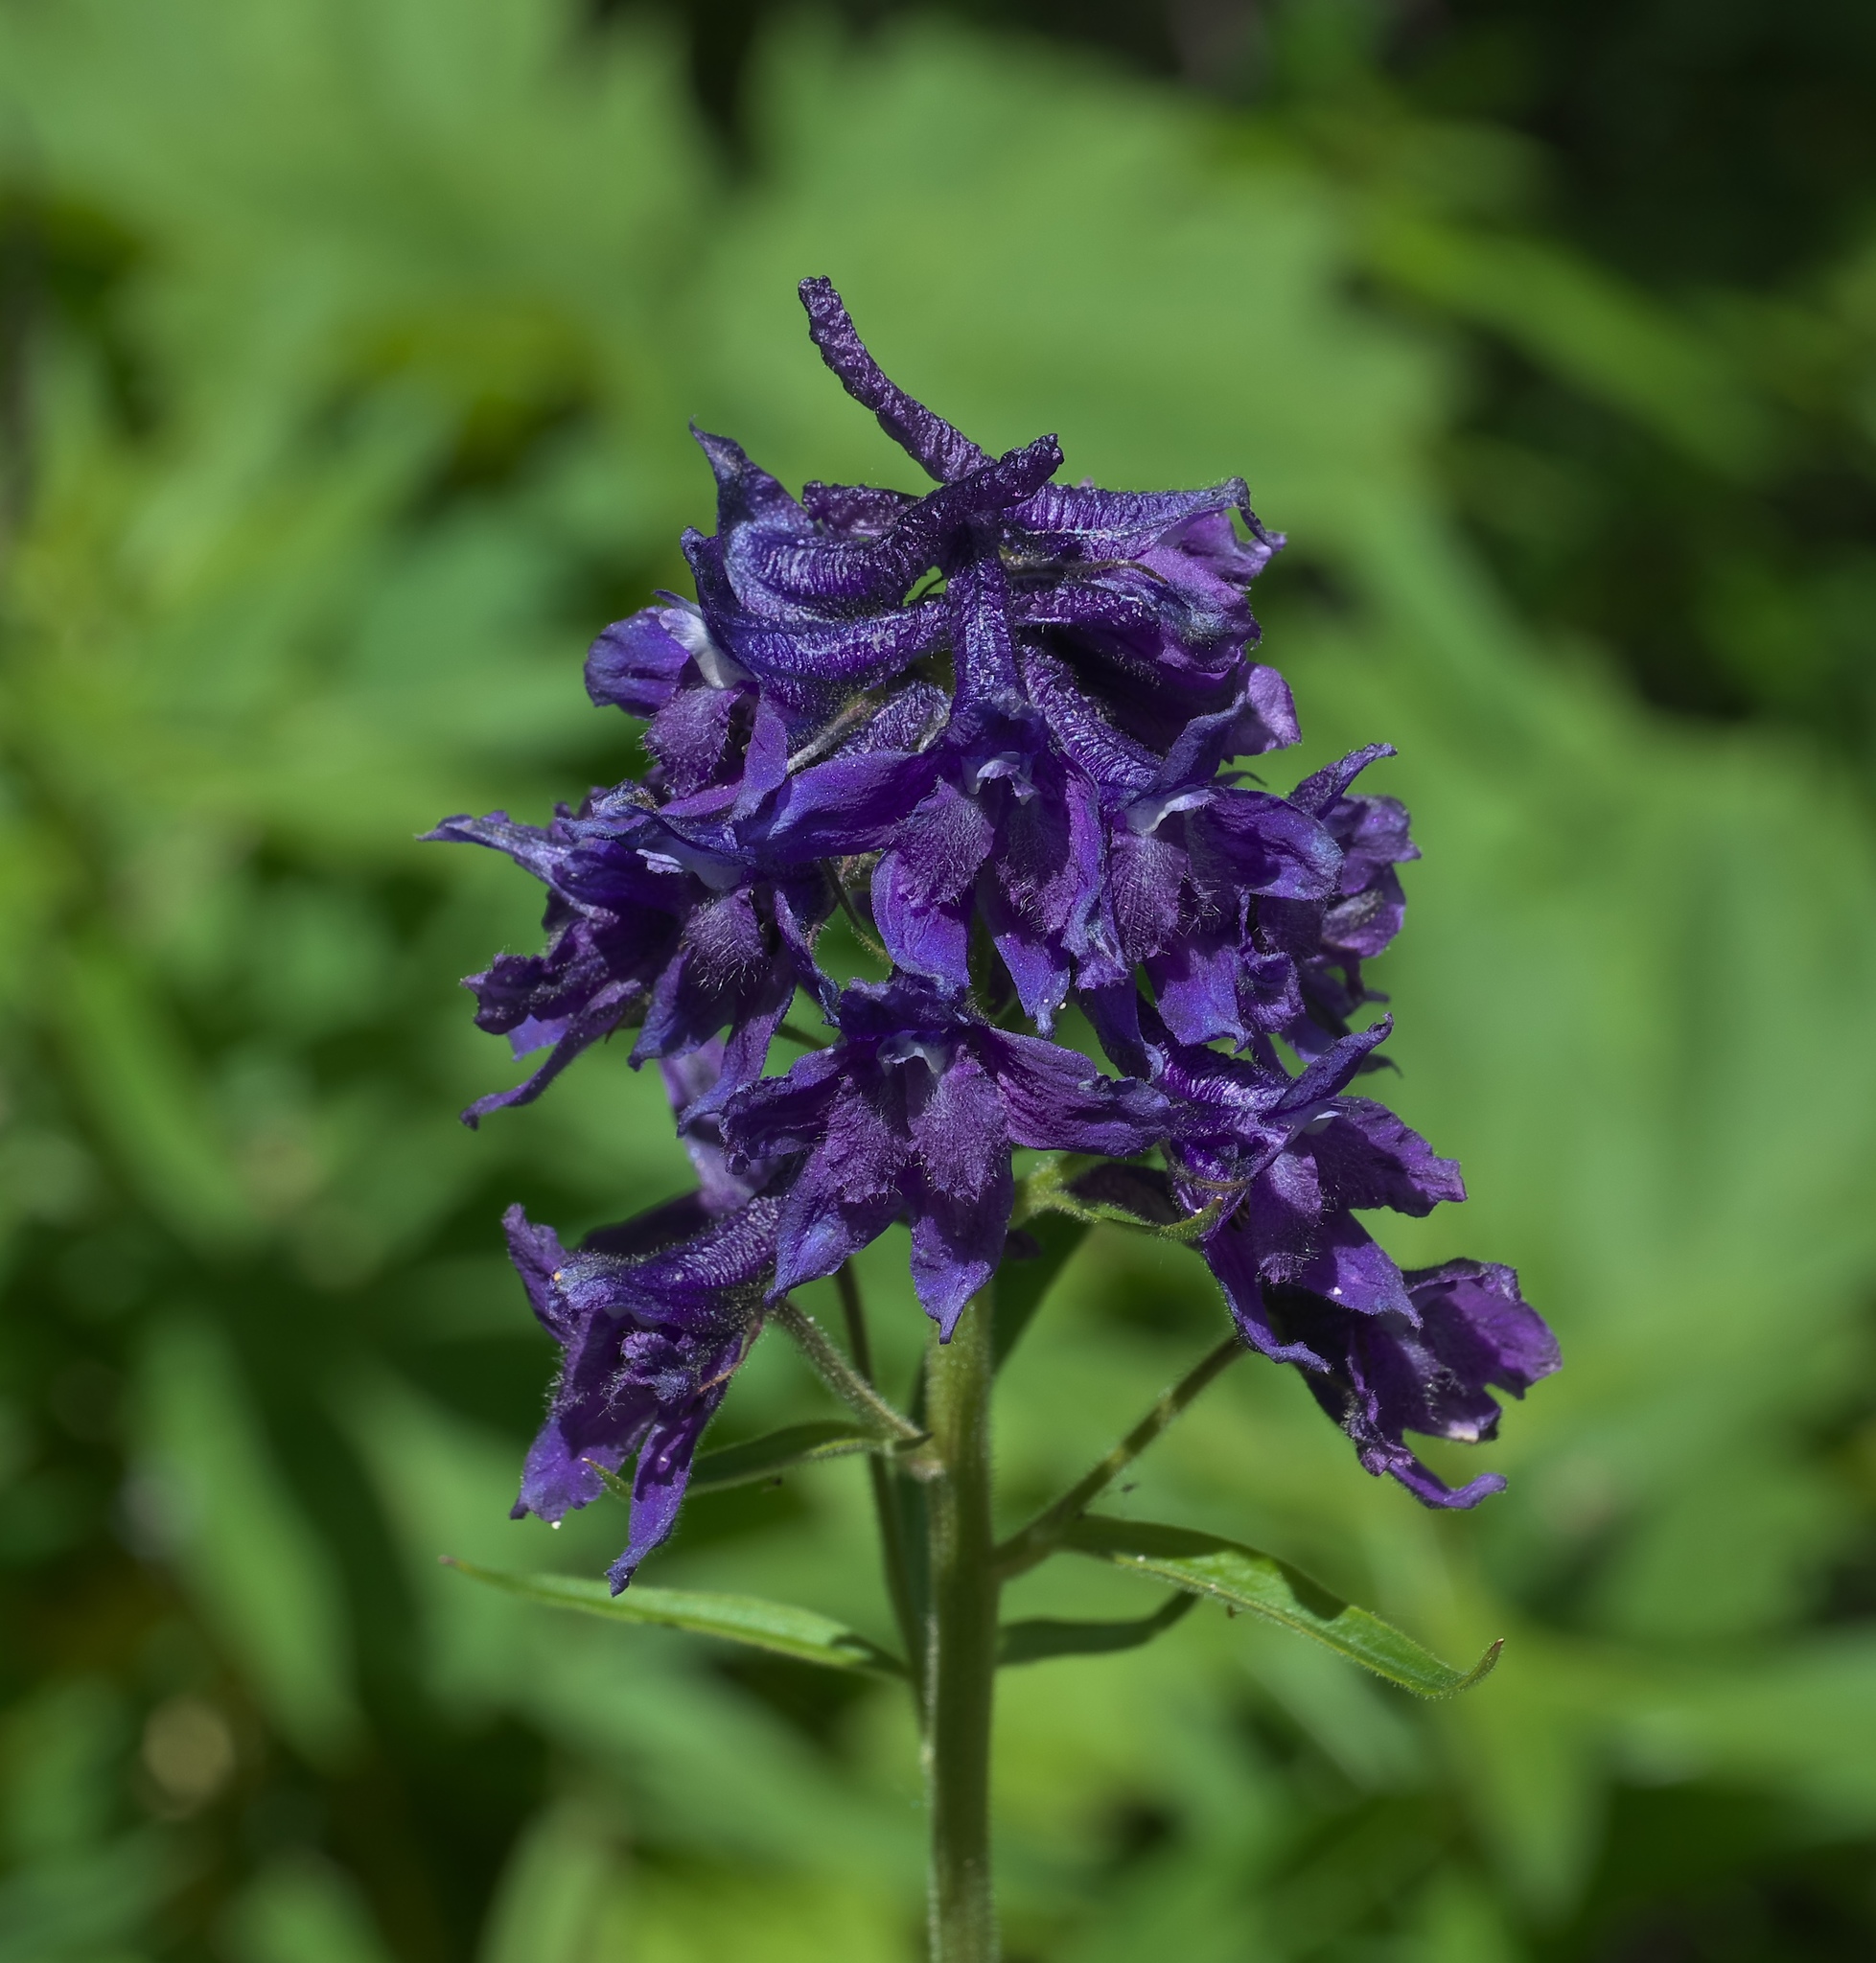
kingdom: Plantae
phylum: Tracheophyta
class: Magnoliopsida
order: Ranunculales
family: Ranunculaceae
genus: Delphinium
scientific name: Delphinium barbeyi
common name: Subalpine larkspur
